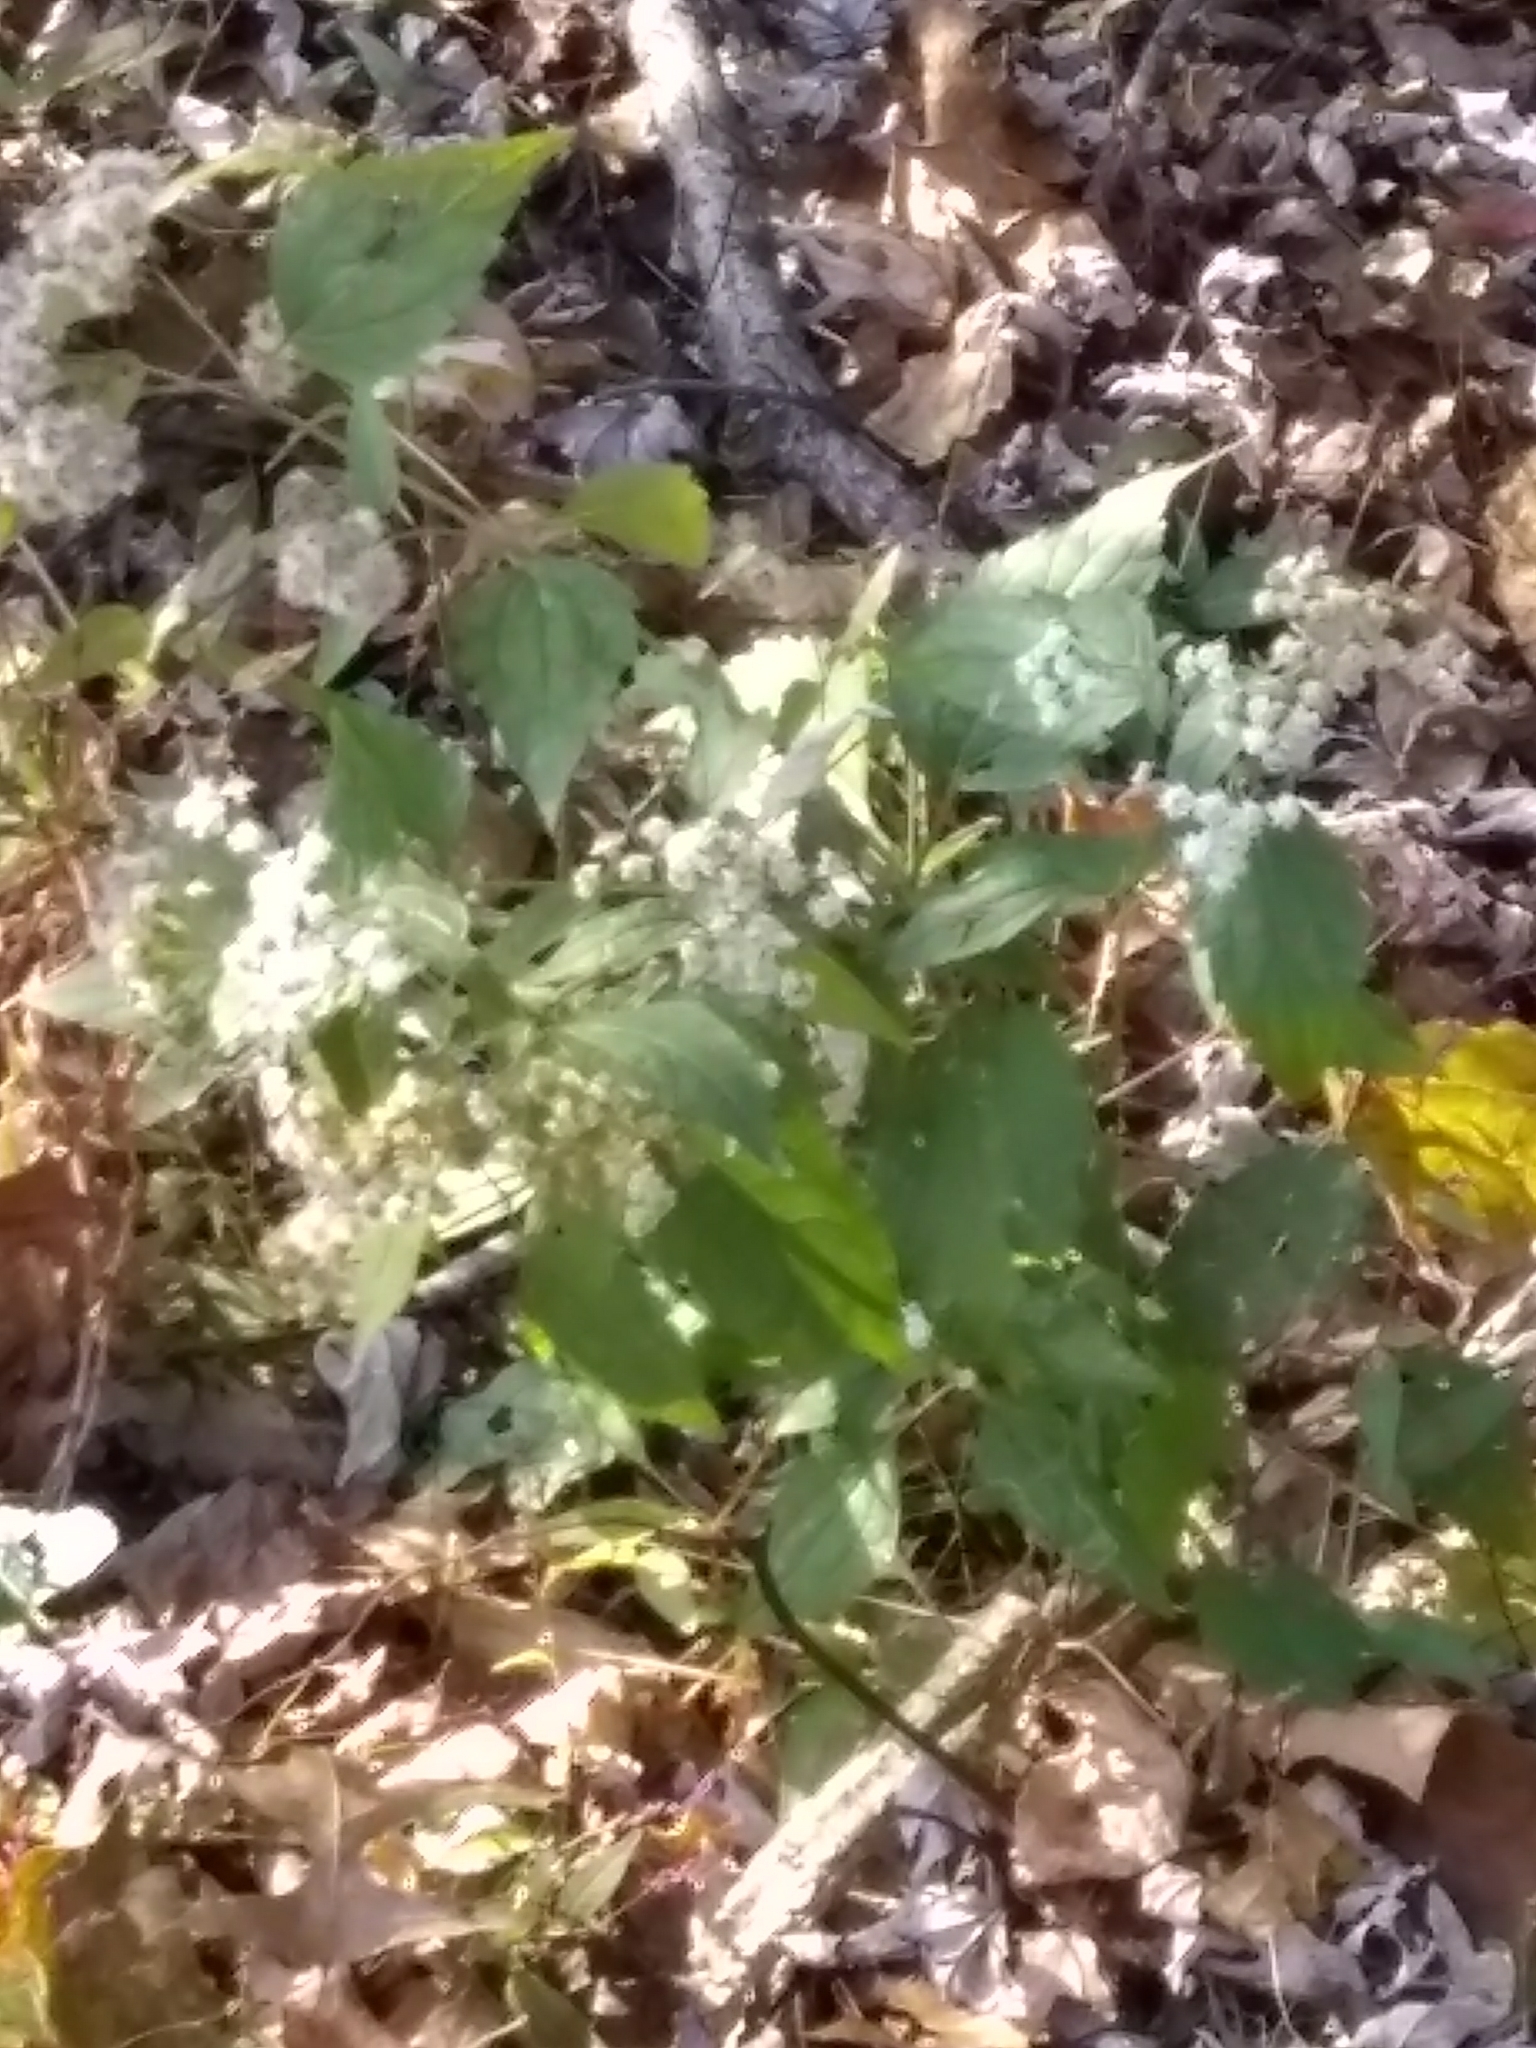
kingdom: Plantae
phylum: Tracheophyta
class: Magnoliopsida
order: Asterales
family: Asteraceae
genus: Ageratina
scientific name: Ageratina altissima
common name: White snakeroot
